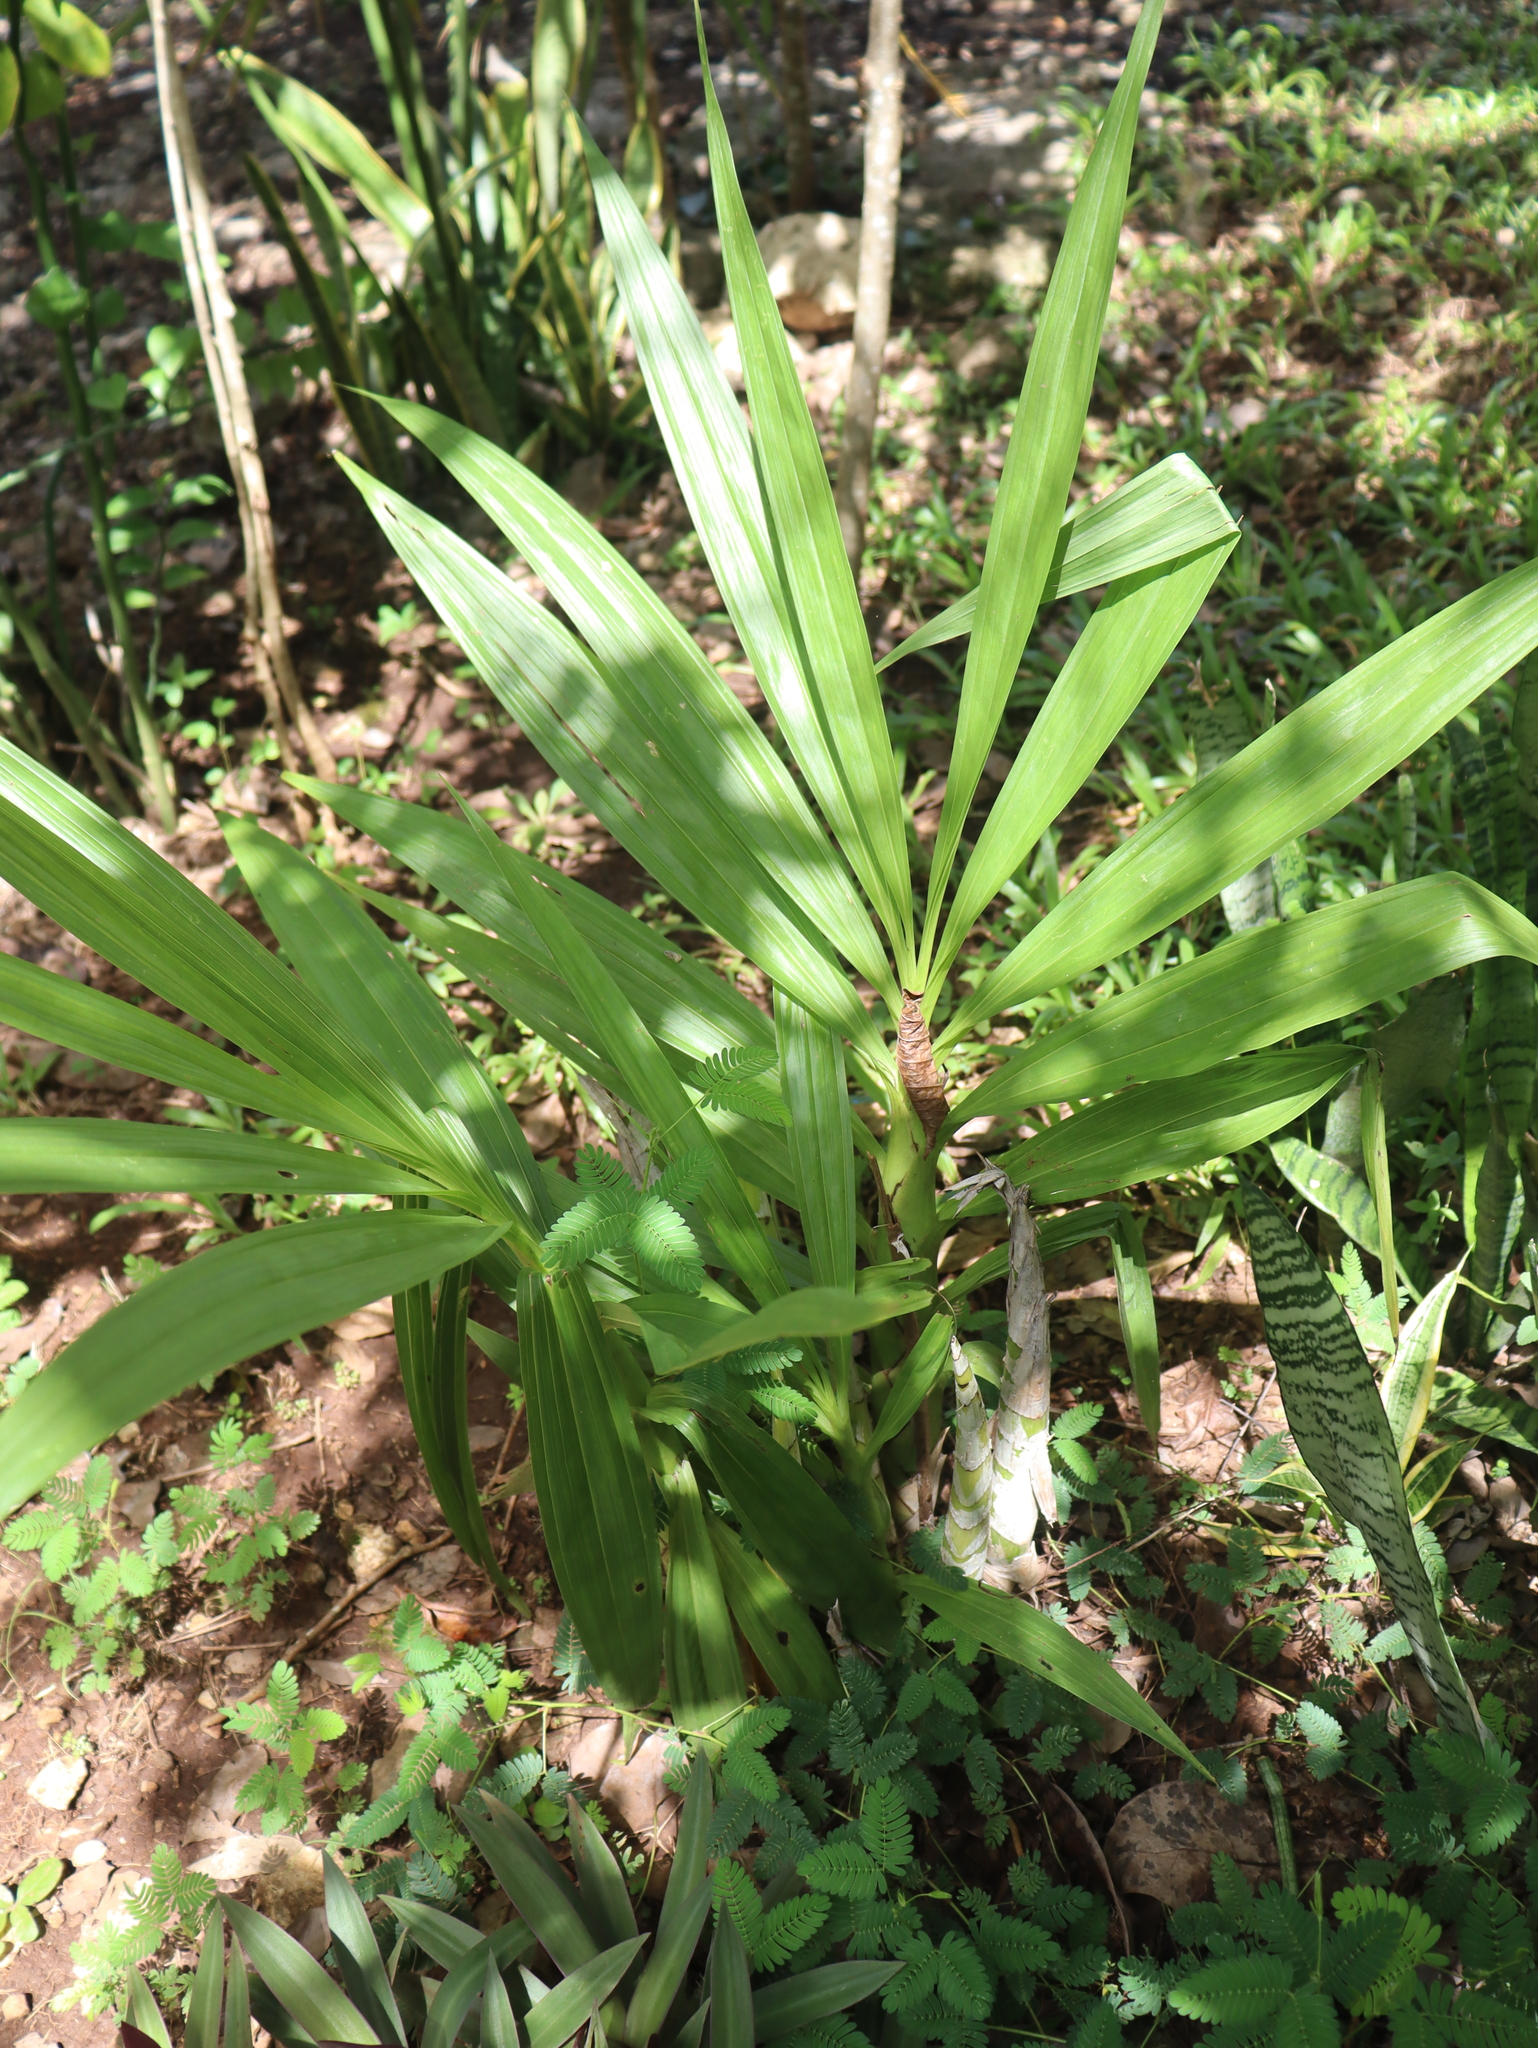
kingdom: Plantae
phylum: Tracheophyta
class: Liliopsida
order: Asparagales
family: Orchidaceae
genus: Cyrtopodium
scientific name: Cyrtopodium macrobulbon
